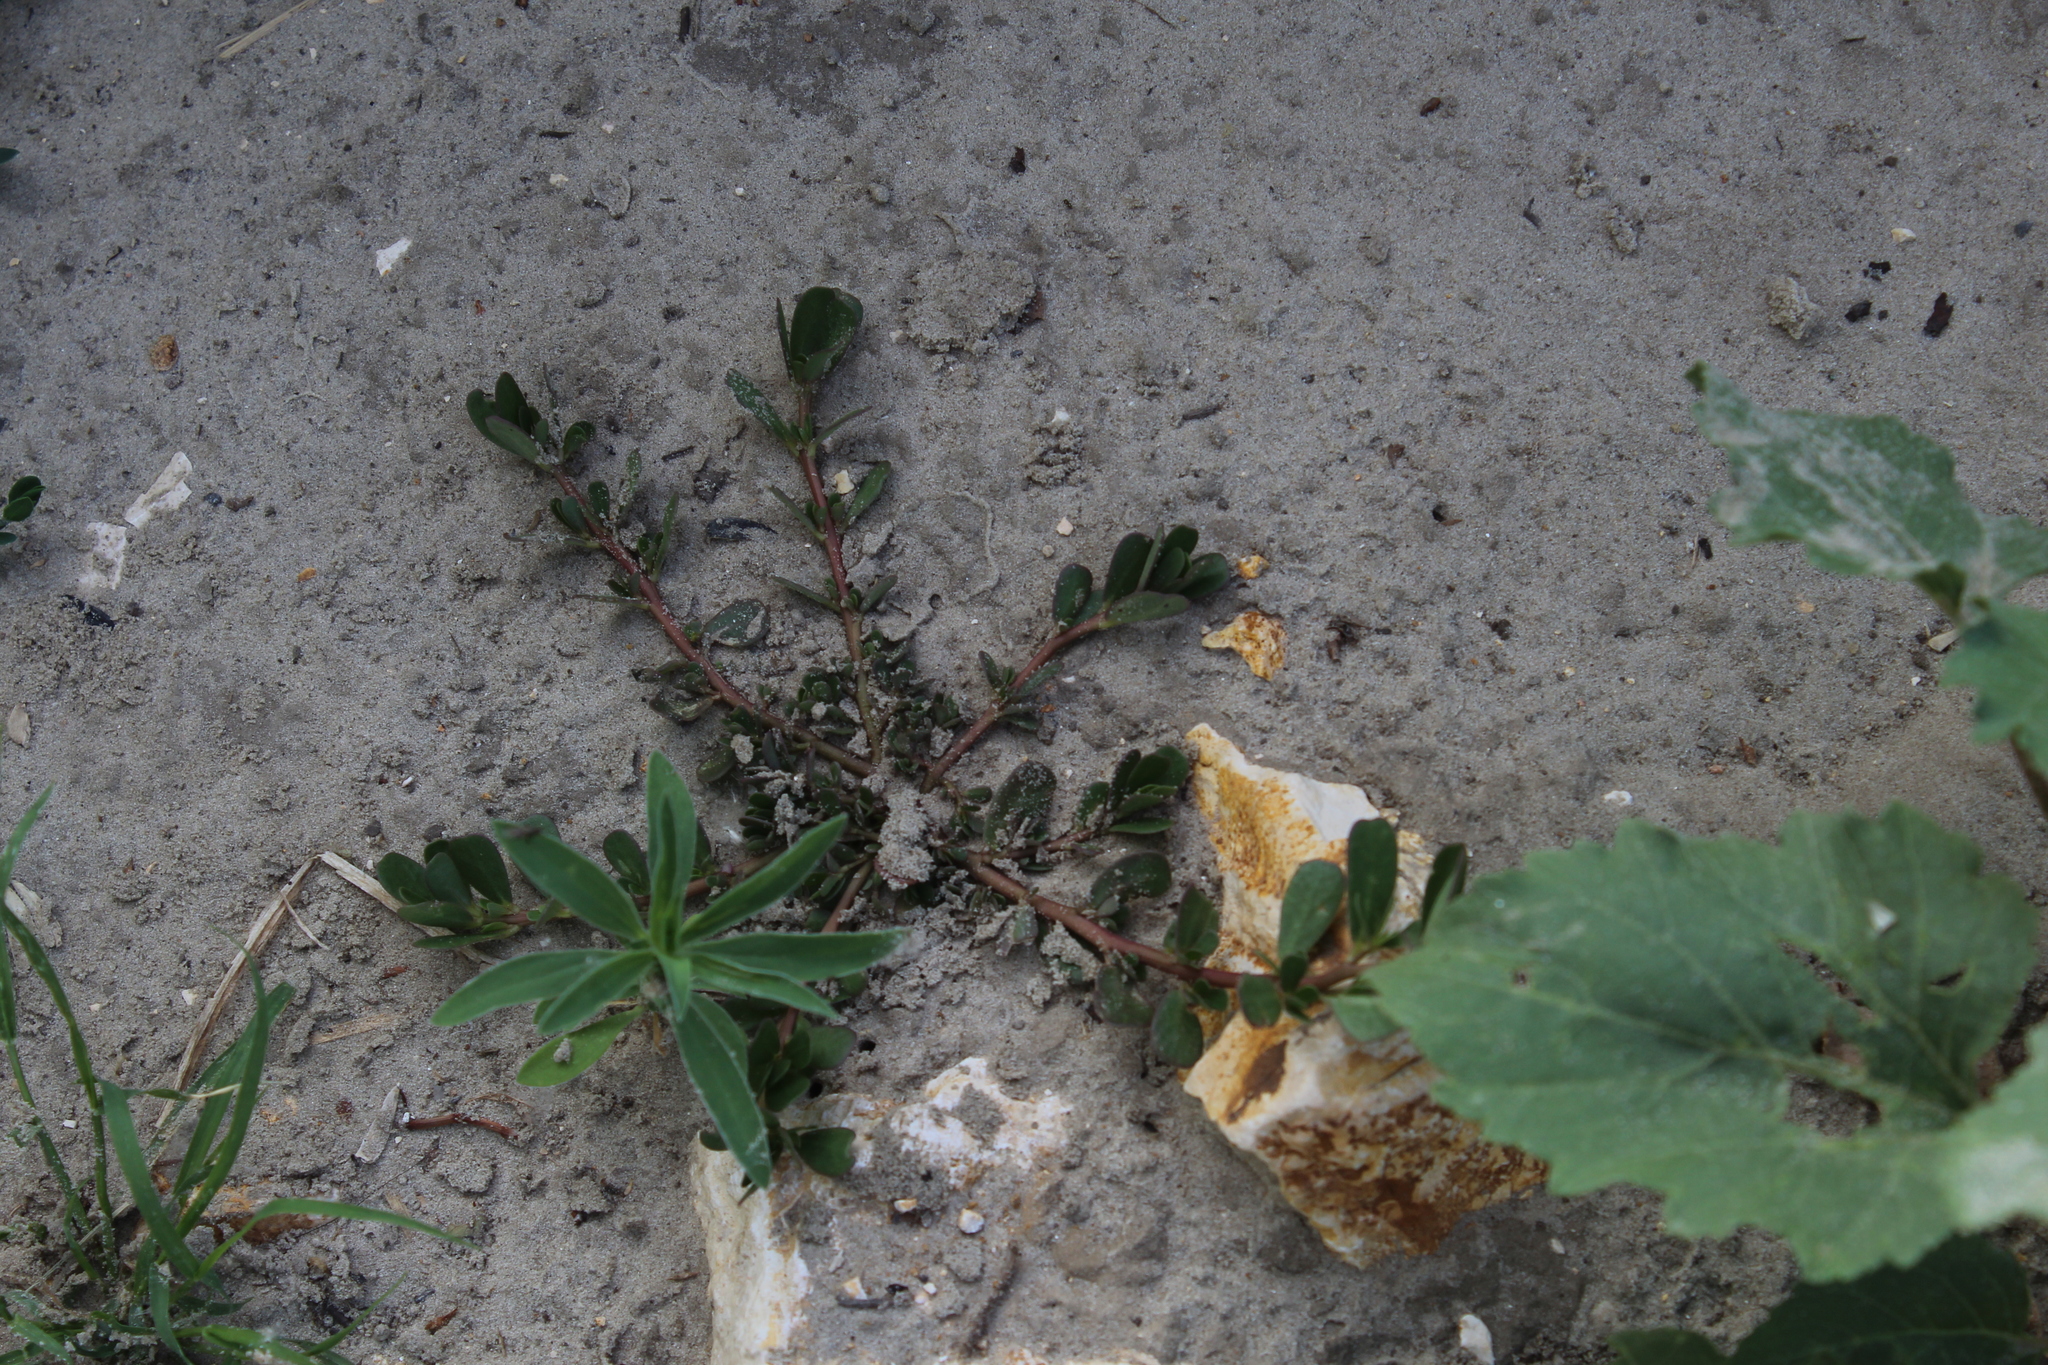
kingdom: Plantae
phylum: Tracheophyta
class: Magnoliopsida
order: Caryophyllales
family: Portulacaceae
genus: Portulaca
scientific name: Portulaca oleracea
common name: Common purslane
